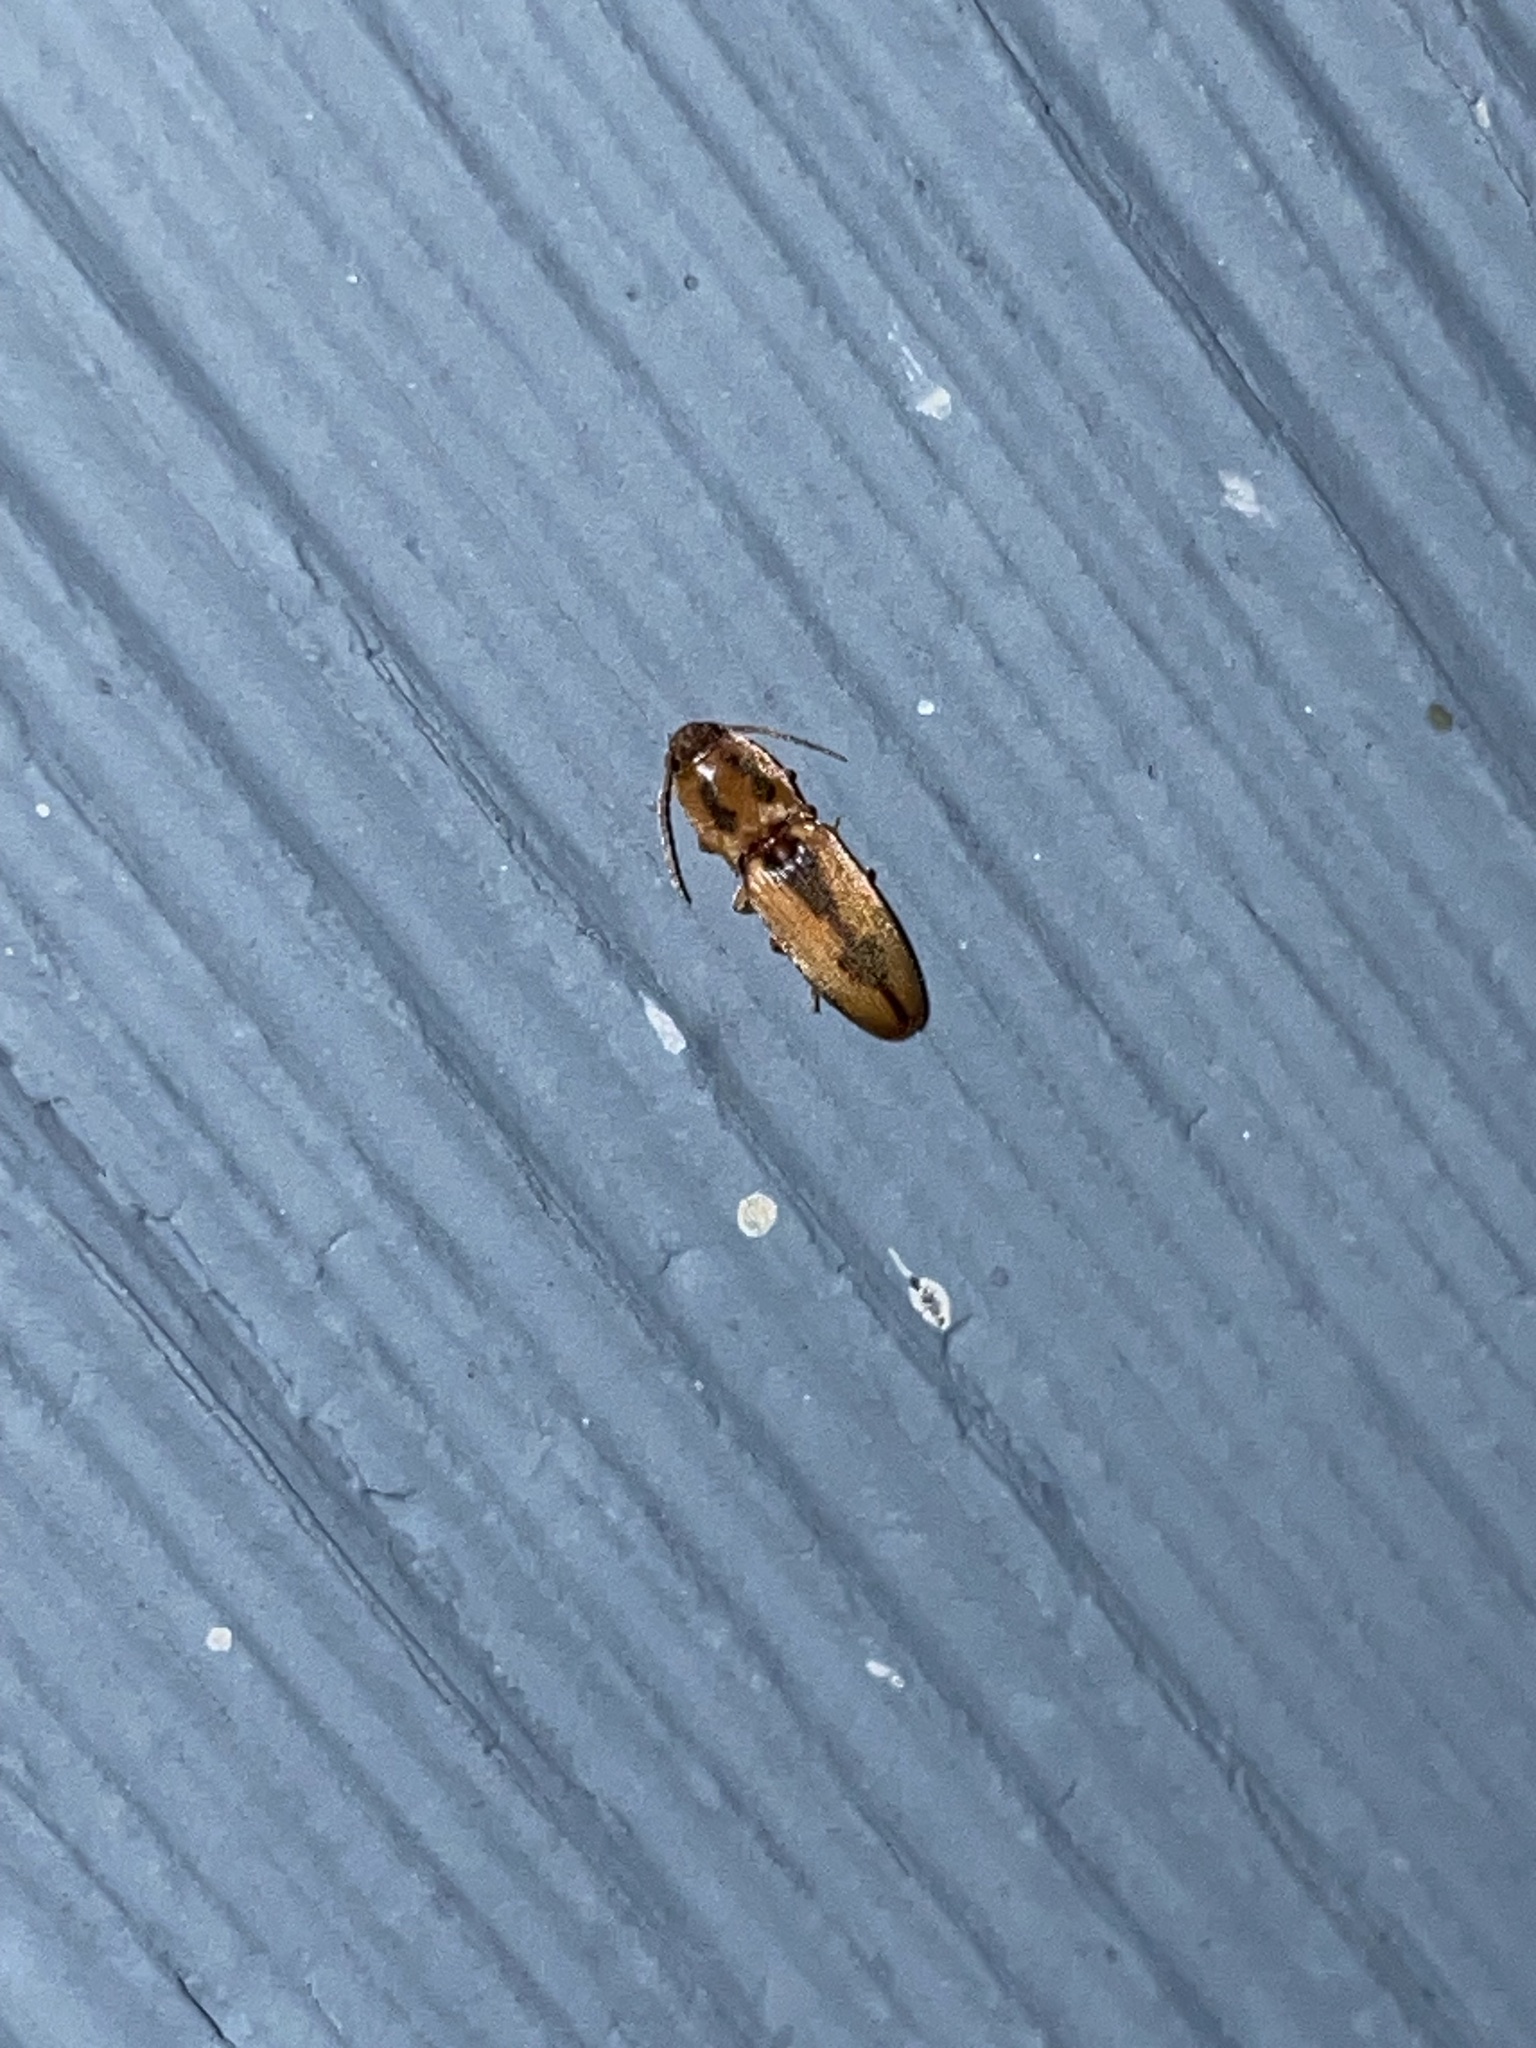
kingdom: Animalia
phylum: Arthropoda
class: Insecta
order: Coleoptera
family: Elateridae
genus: Monocrepidius
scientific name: Monocrepidius
